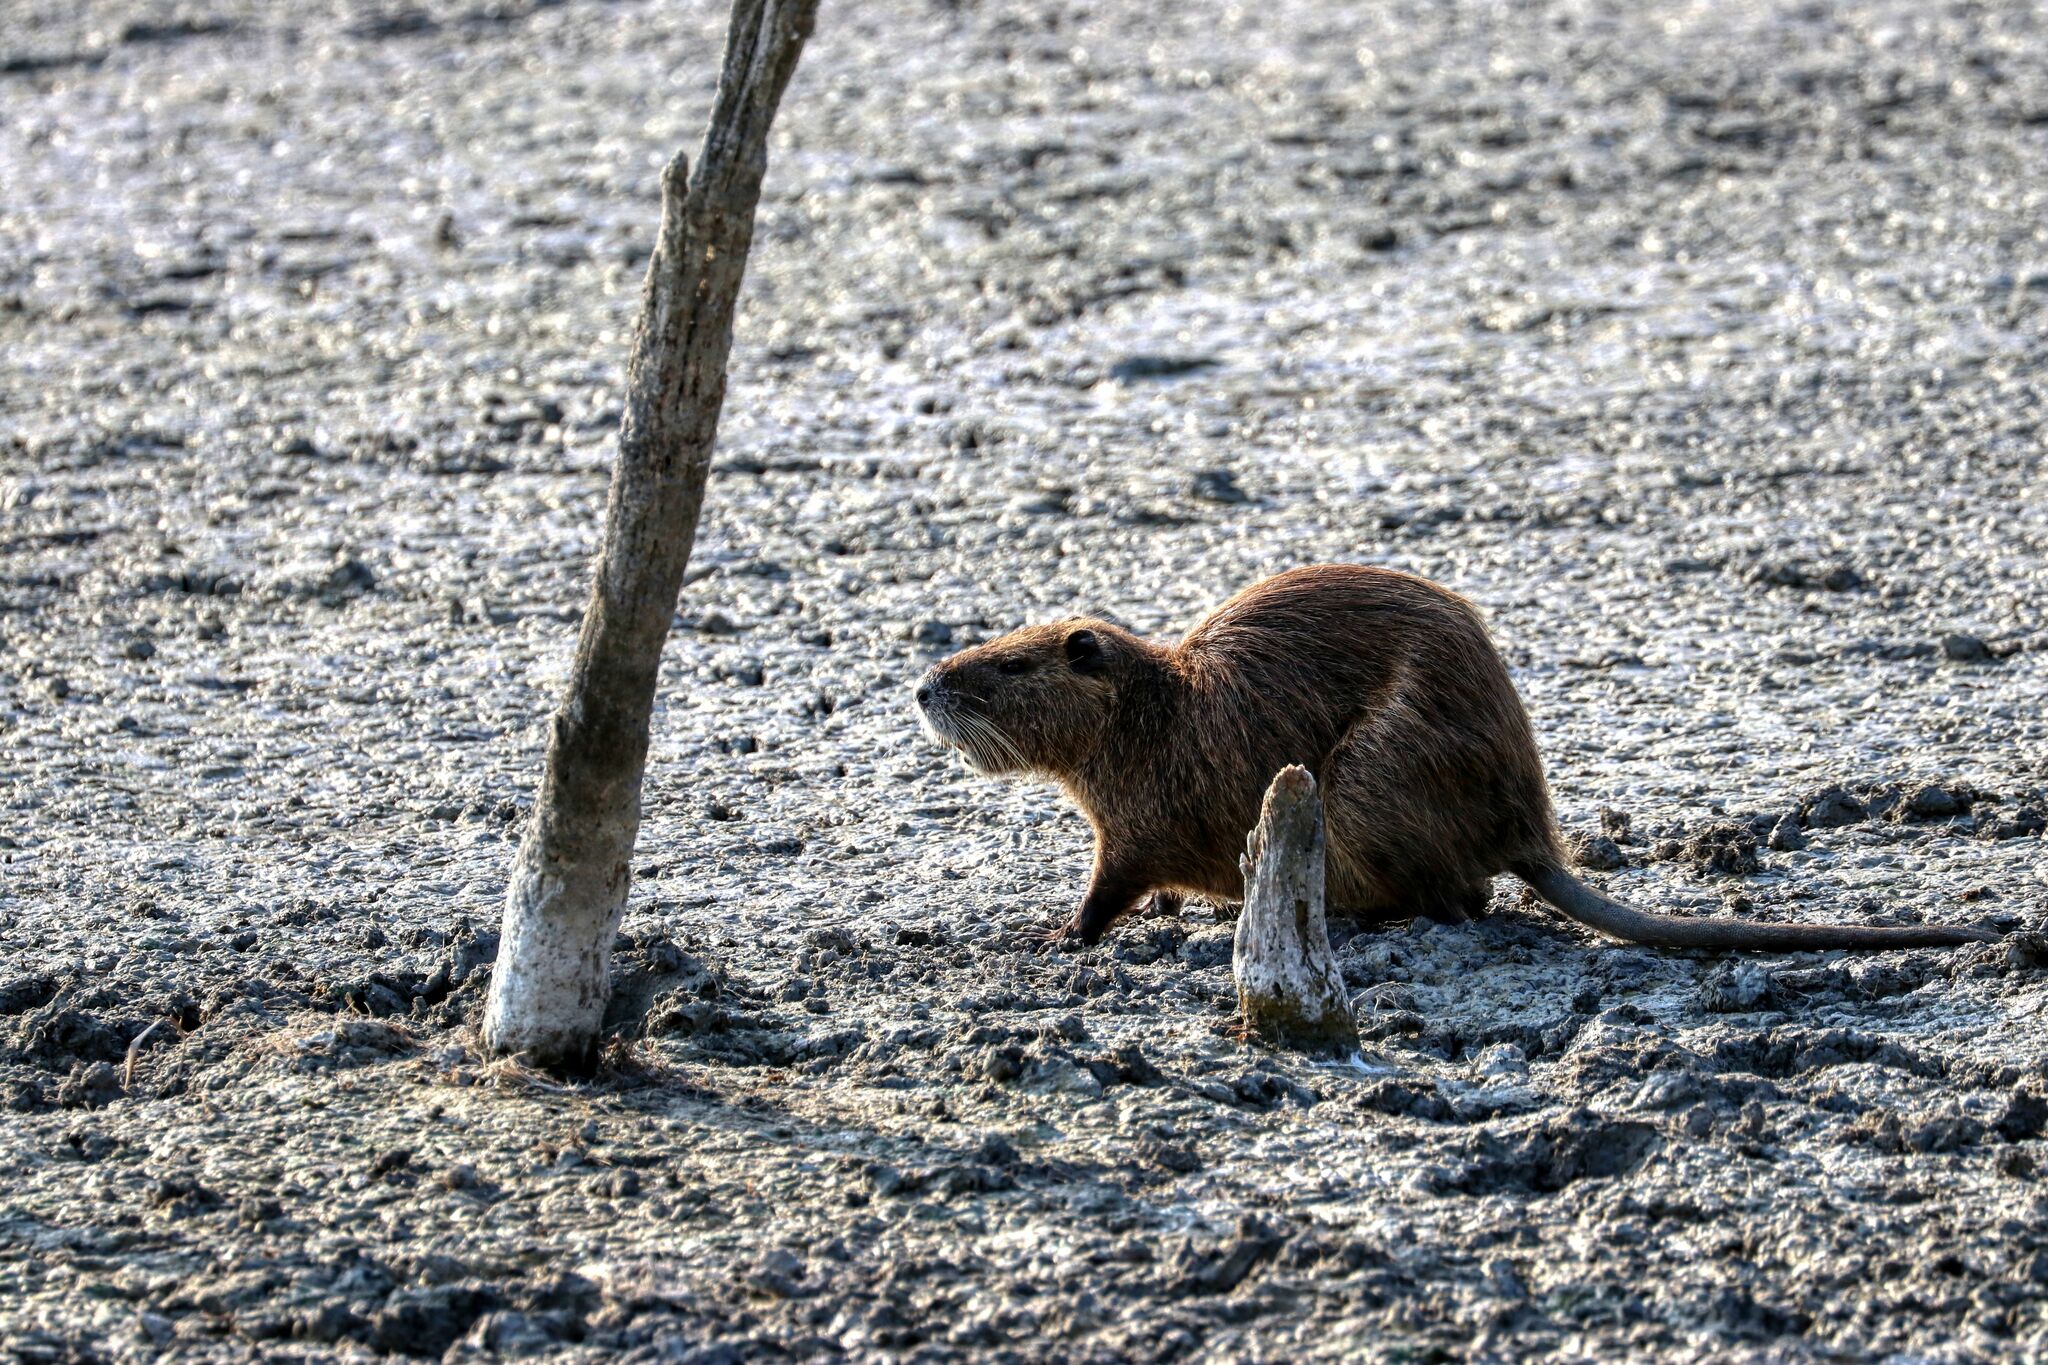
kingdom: Animalia
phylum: Chordata
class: Mammalia
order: Rodentia
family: Myocastoridae
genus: Myocastor
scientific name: Myocastor coypus
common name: Coypu
